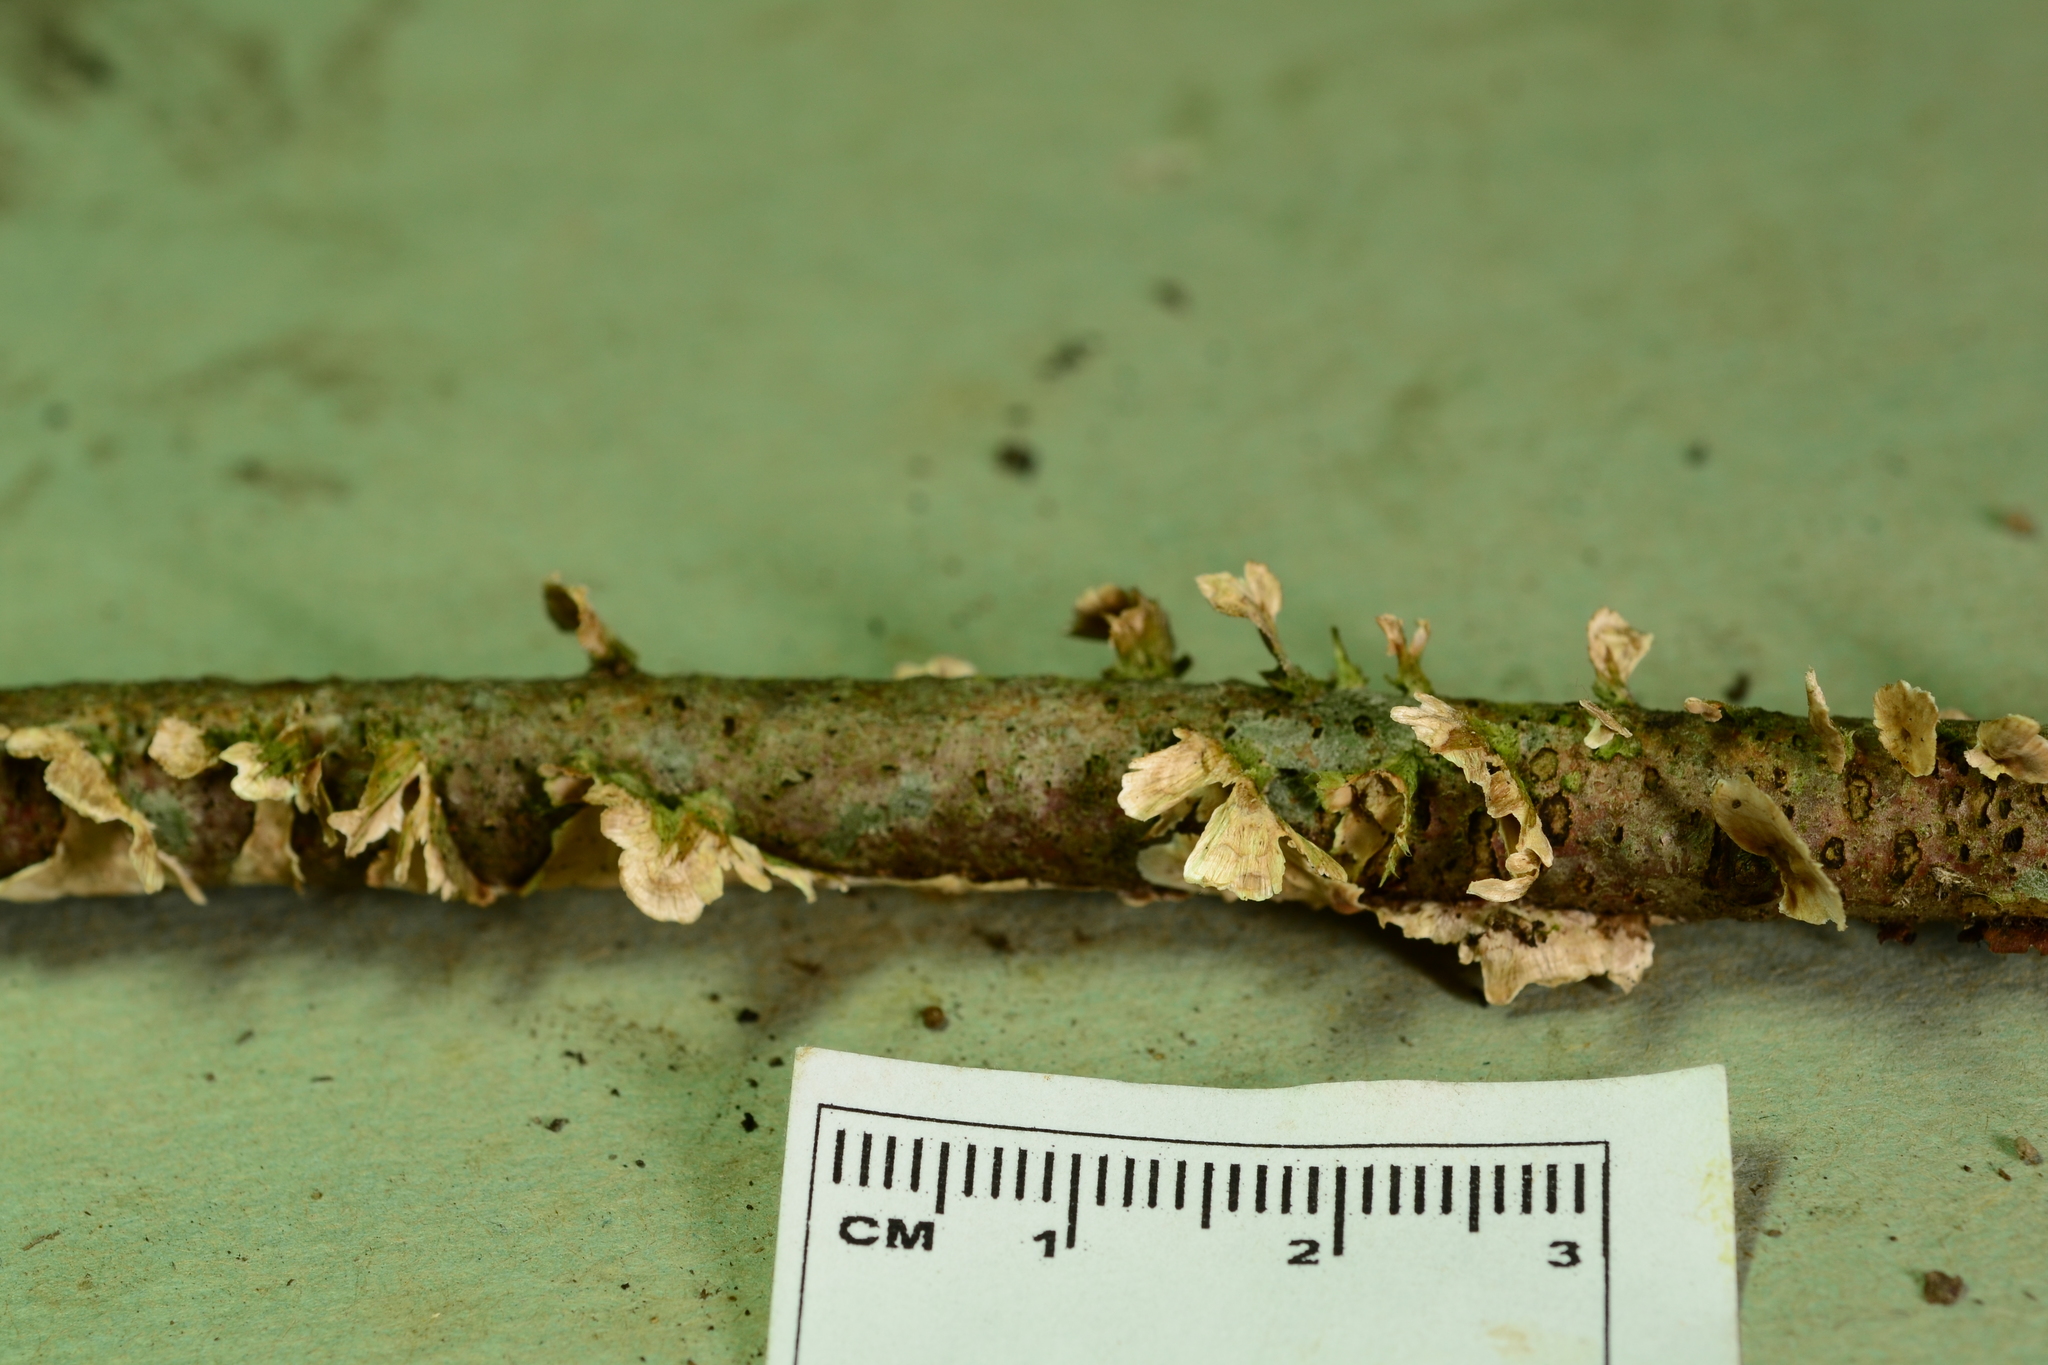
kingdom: Fungi
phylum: Basidiomycota
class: Agaricomycetes
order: Russulales
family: Stereaceae
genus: Stereum
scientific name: Stereum striatum
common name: Silky parchment
